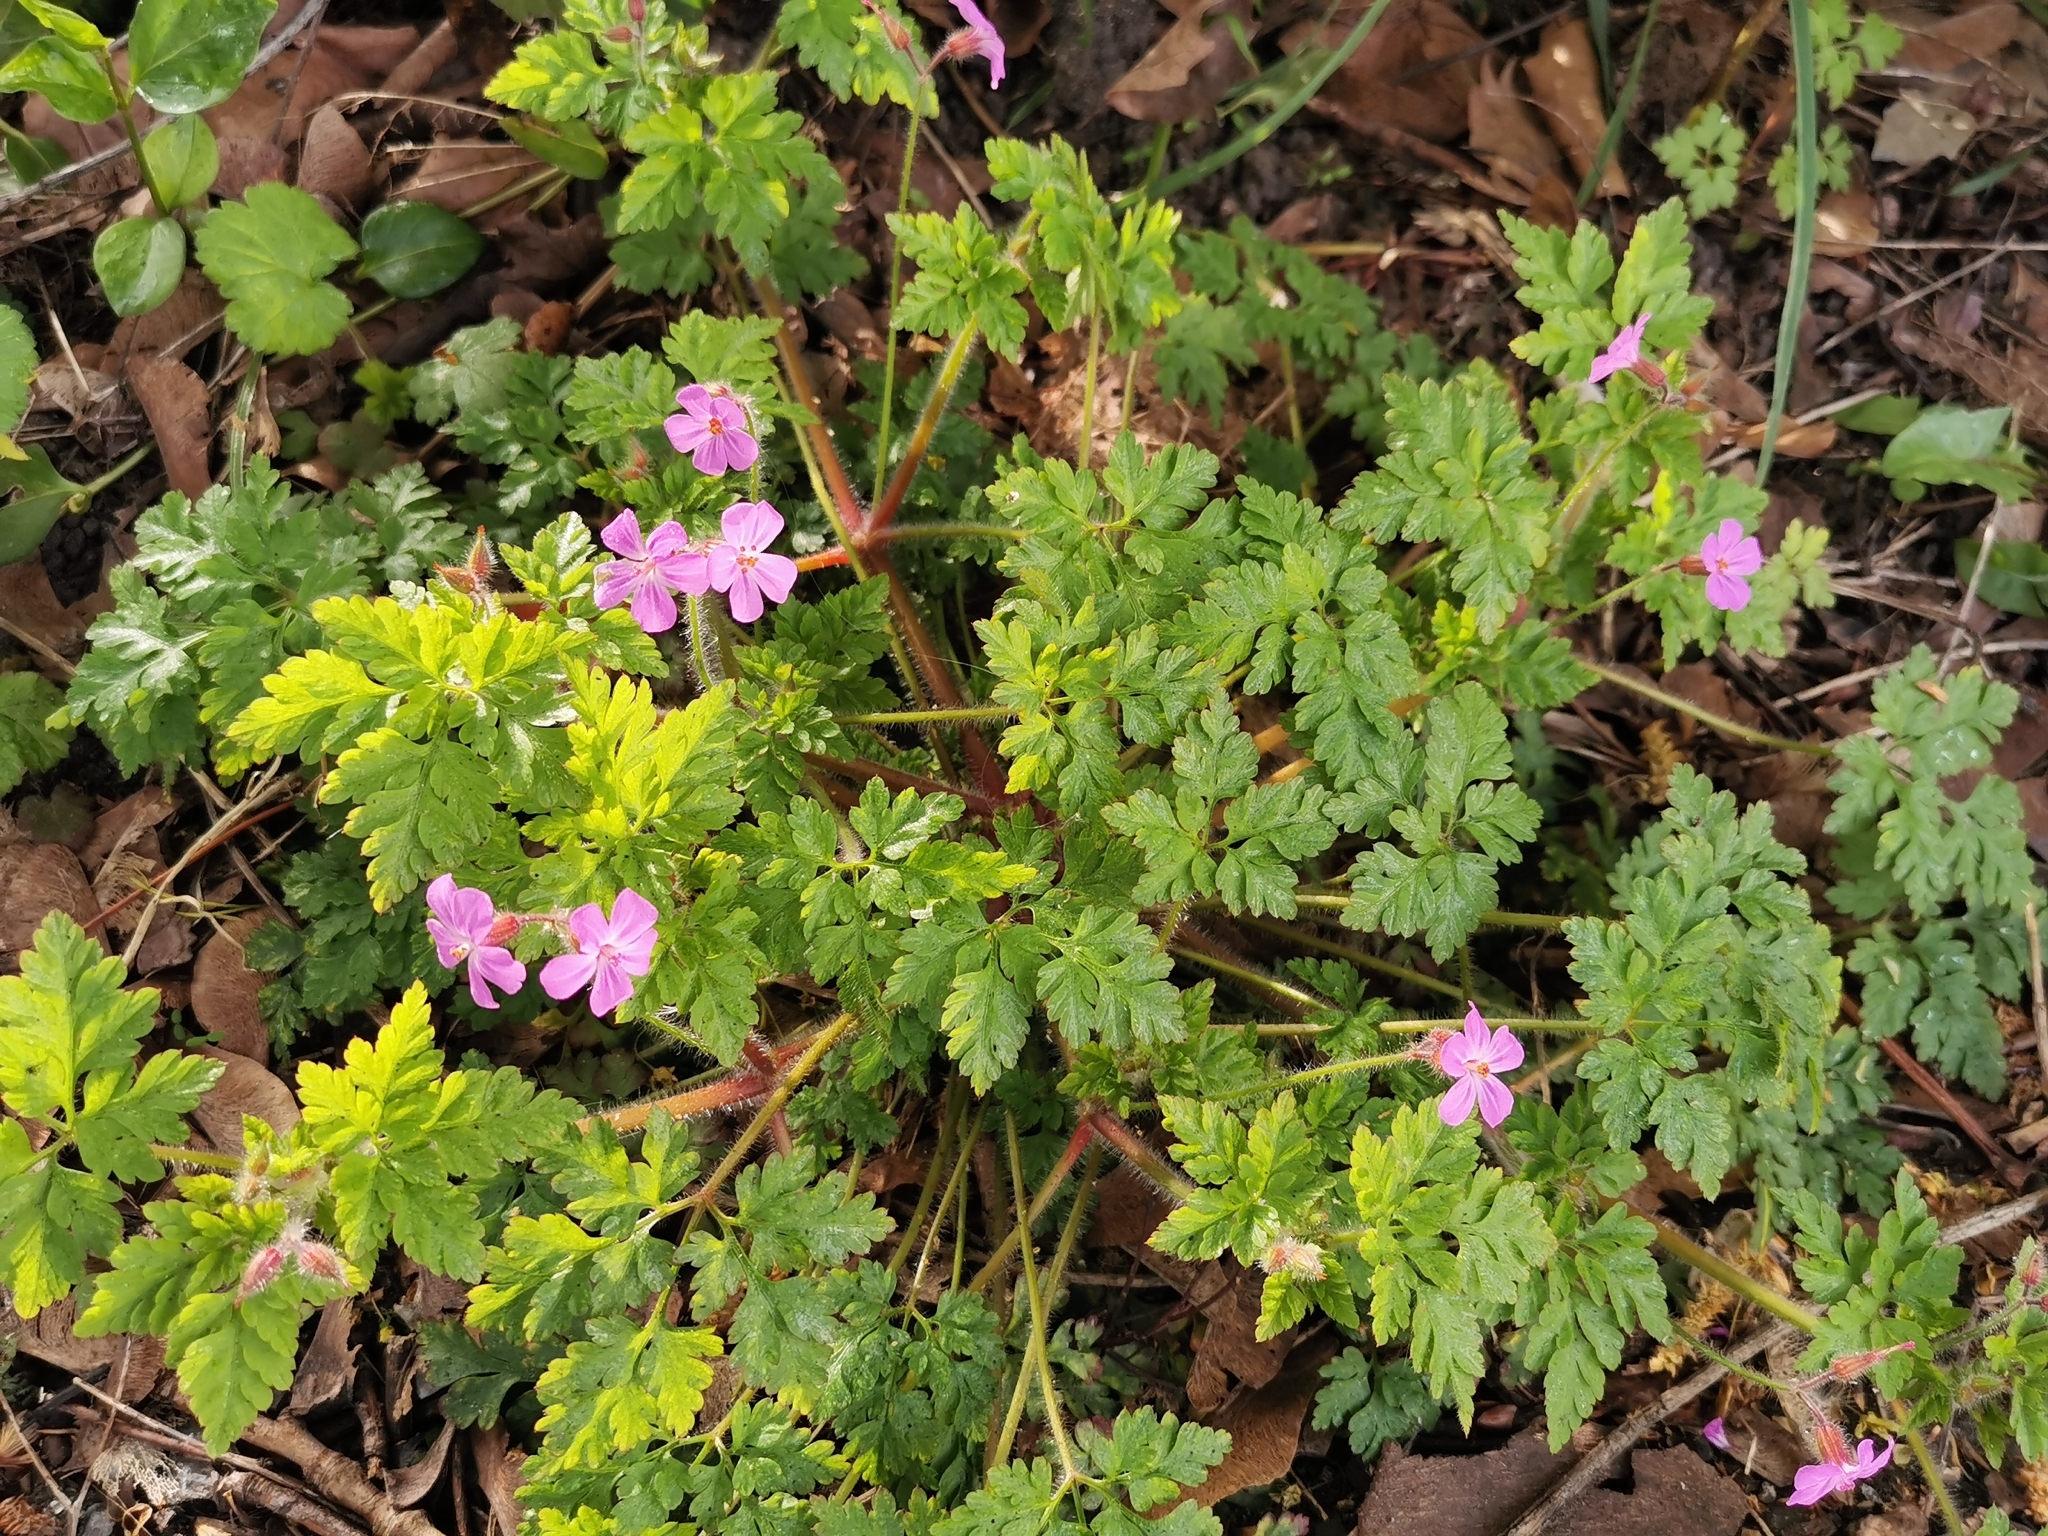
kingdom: Plantae
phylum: Tracheophyta
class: Magnoliopsida
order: Geraniales
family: Geraniaceae
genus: Geranium
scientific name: Geranium robertianum
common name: Herb-robert
